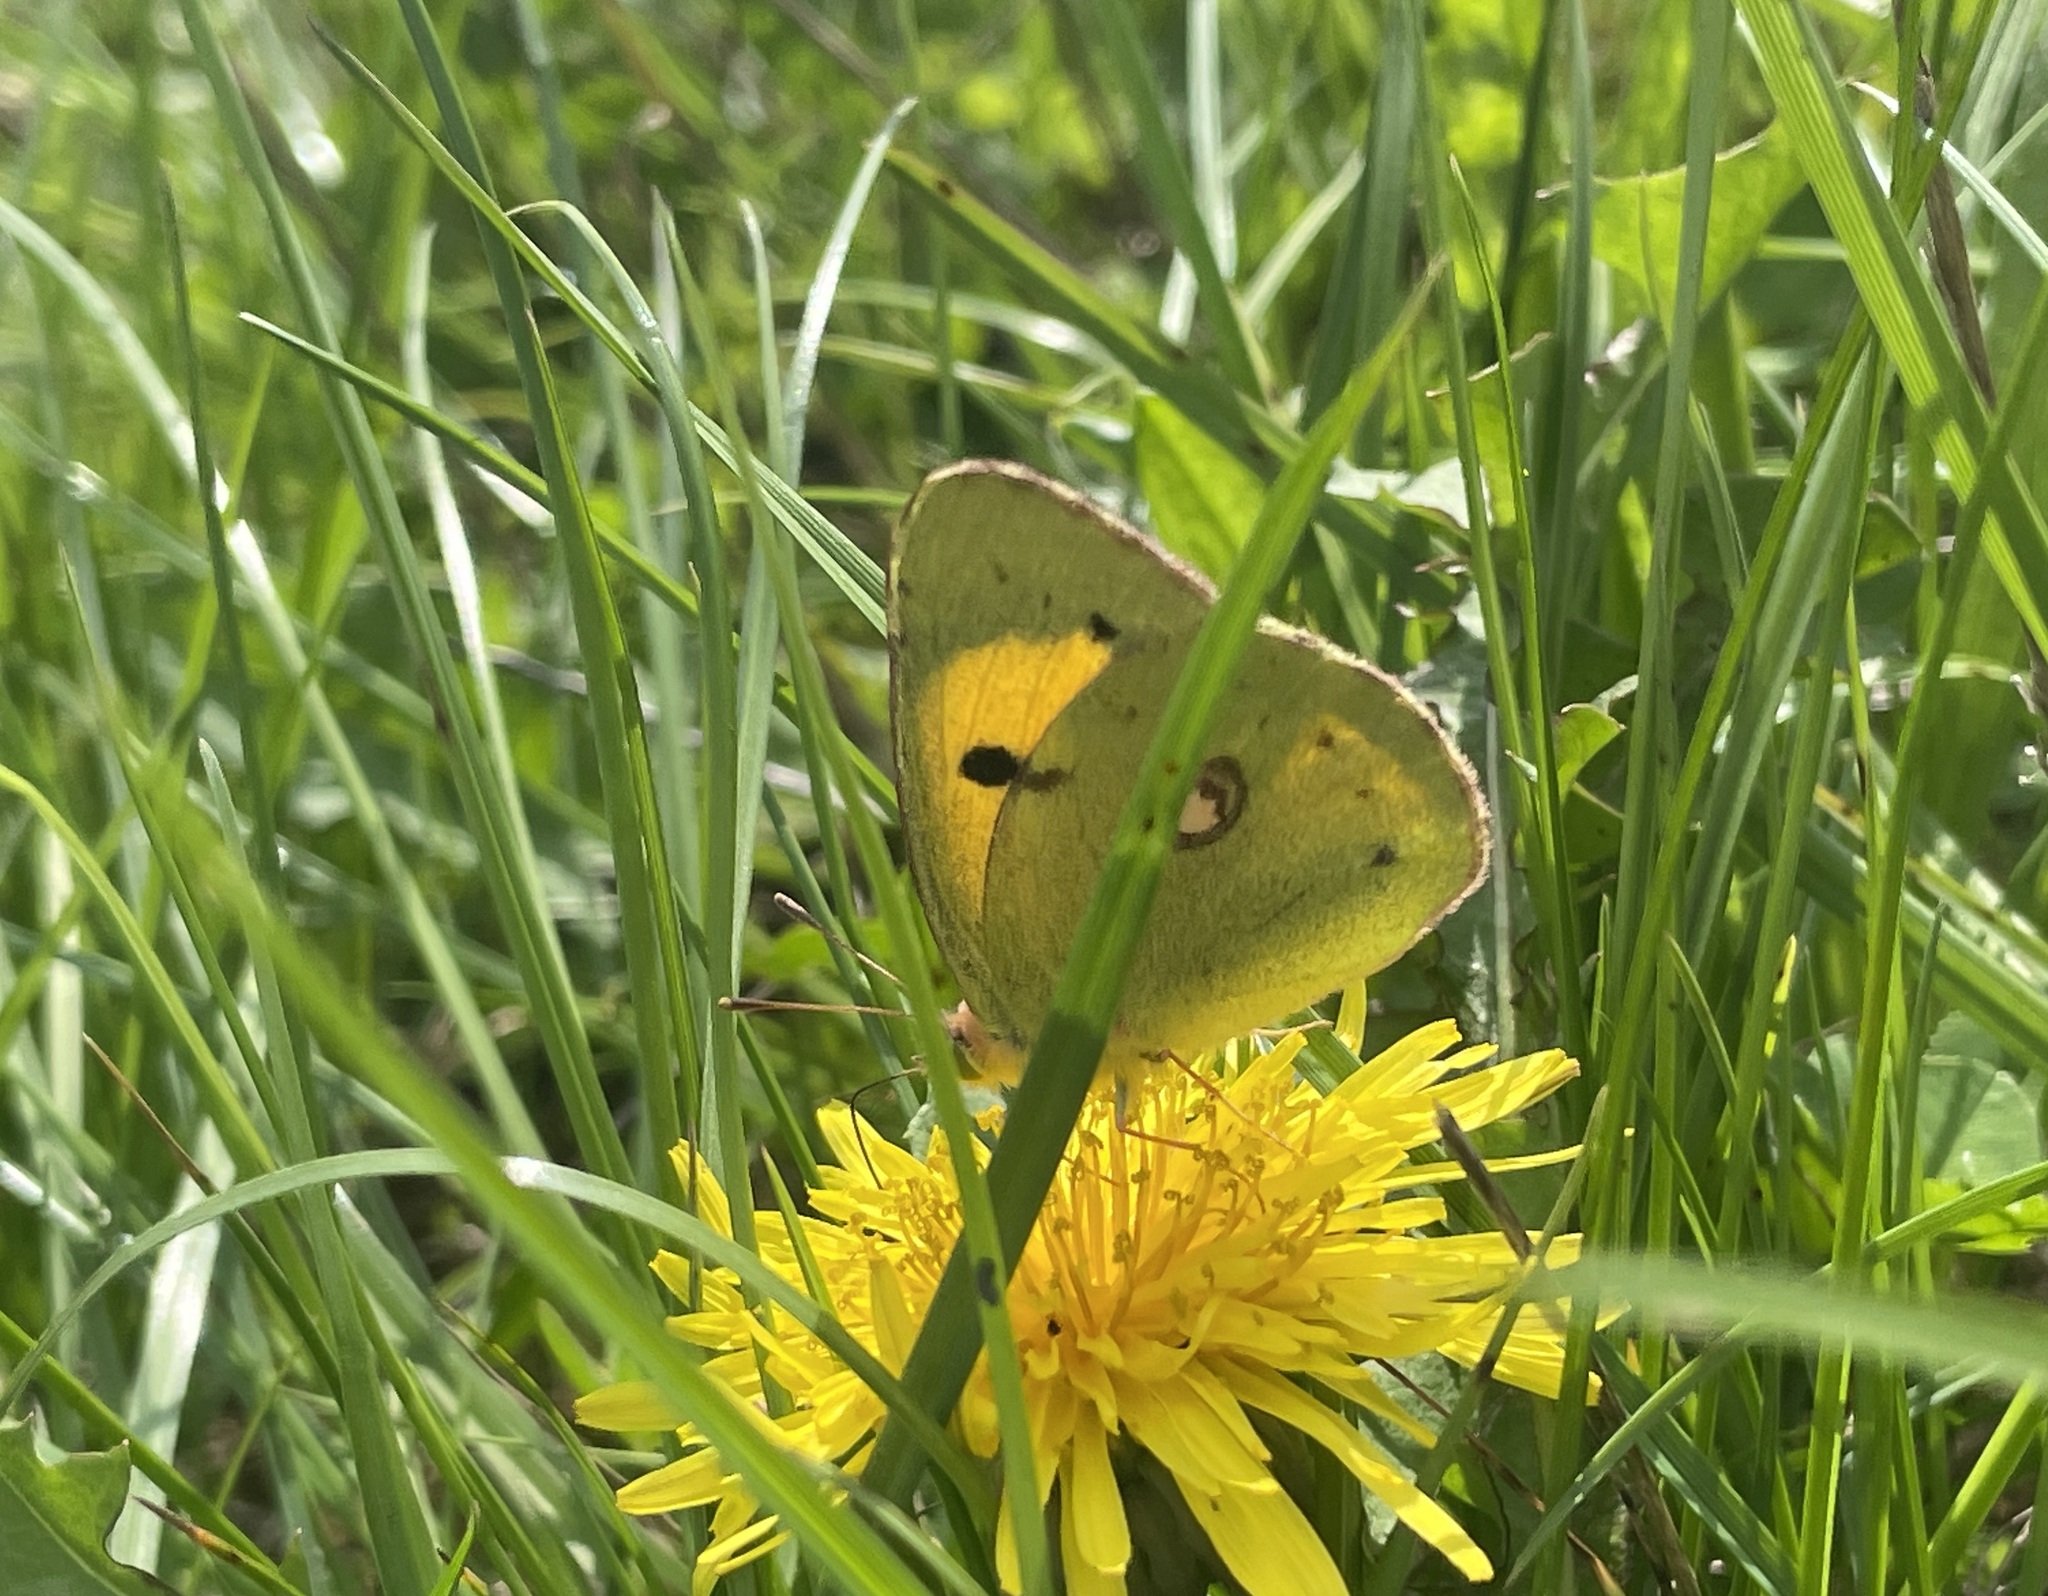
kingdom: Animalia
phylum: Arthropoda
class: Insecta
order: Lepidoptera
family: Pieridae
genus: Colias
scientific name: Colias croceus
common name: Clouded yellow
